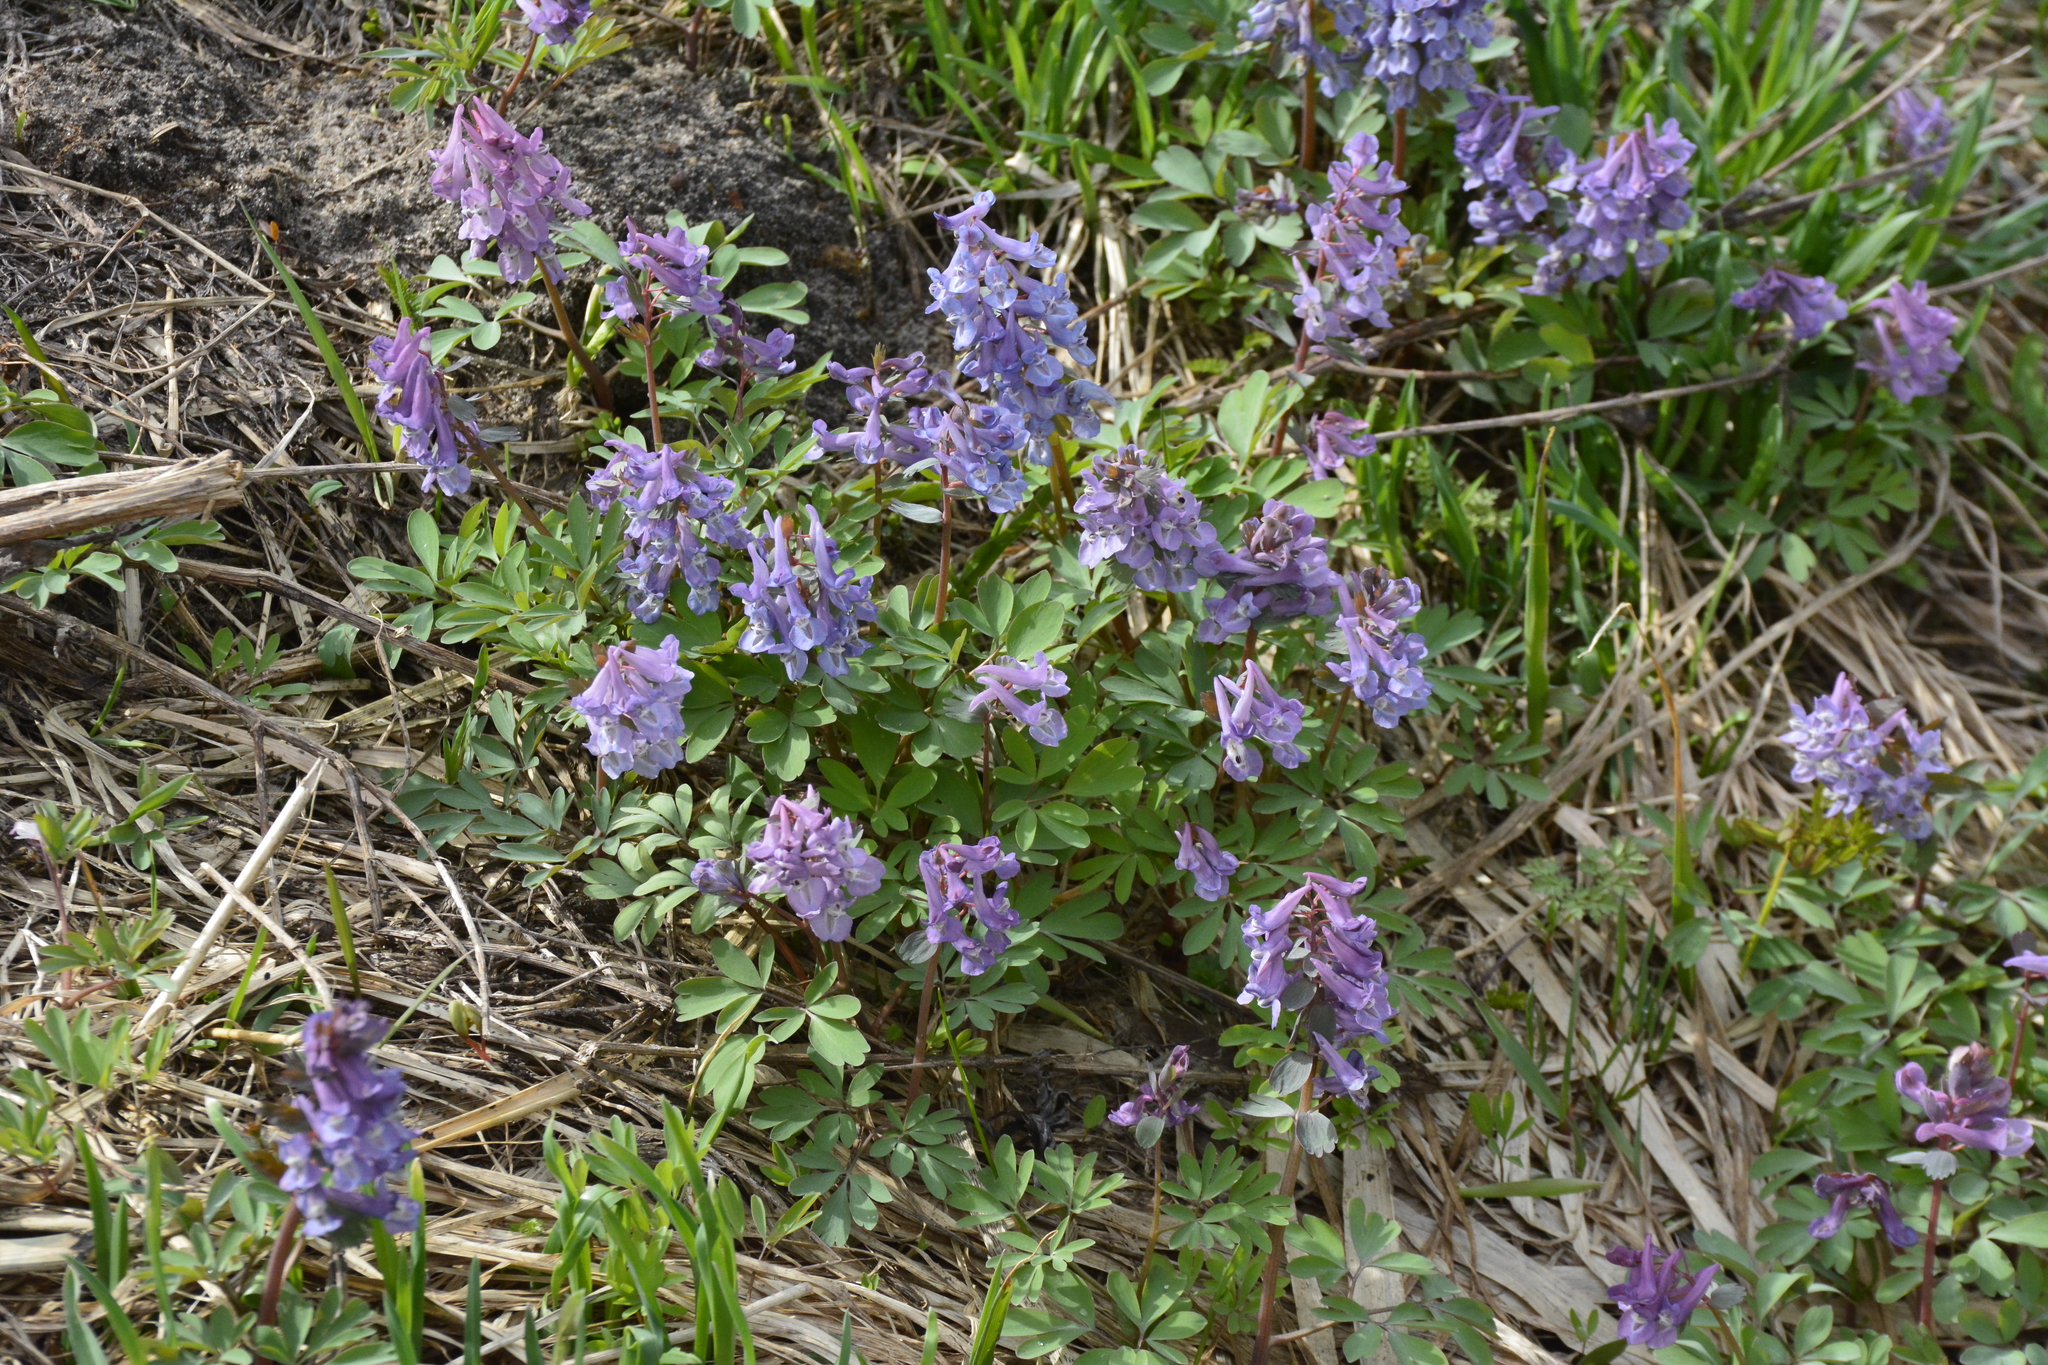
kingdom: Plantae
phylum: Tracheophyta
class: Magnoliopsida
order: Ranunculales
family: Papaveraceae
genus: Corydalis
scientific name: Corydalis solida
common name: Bird-in-a-bush
